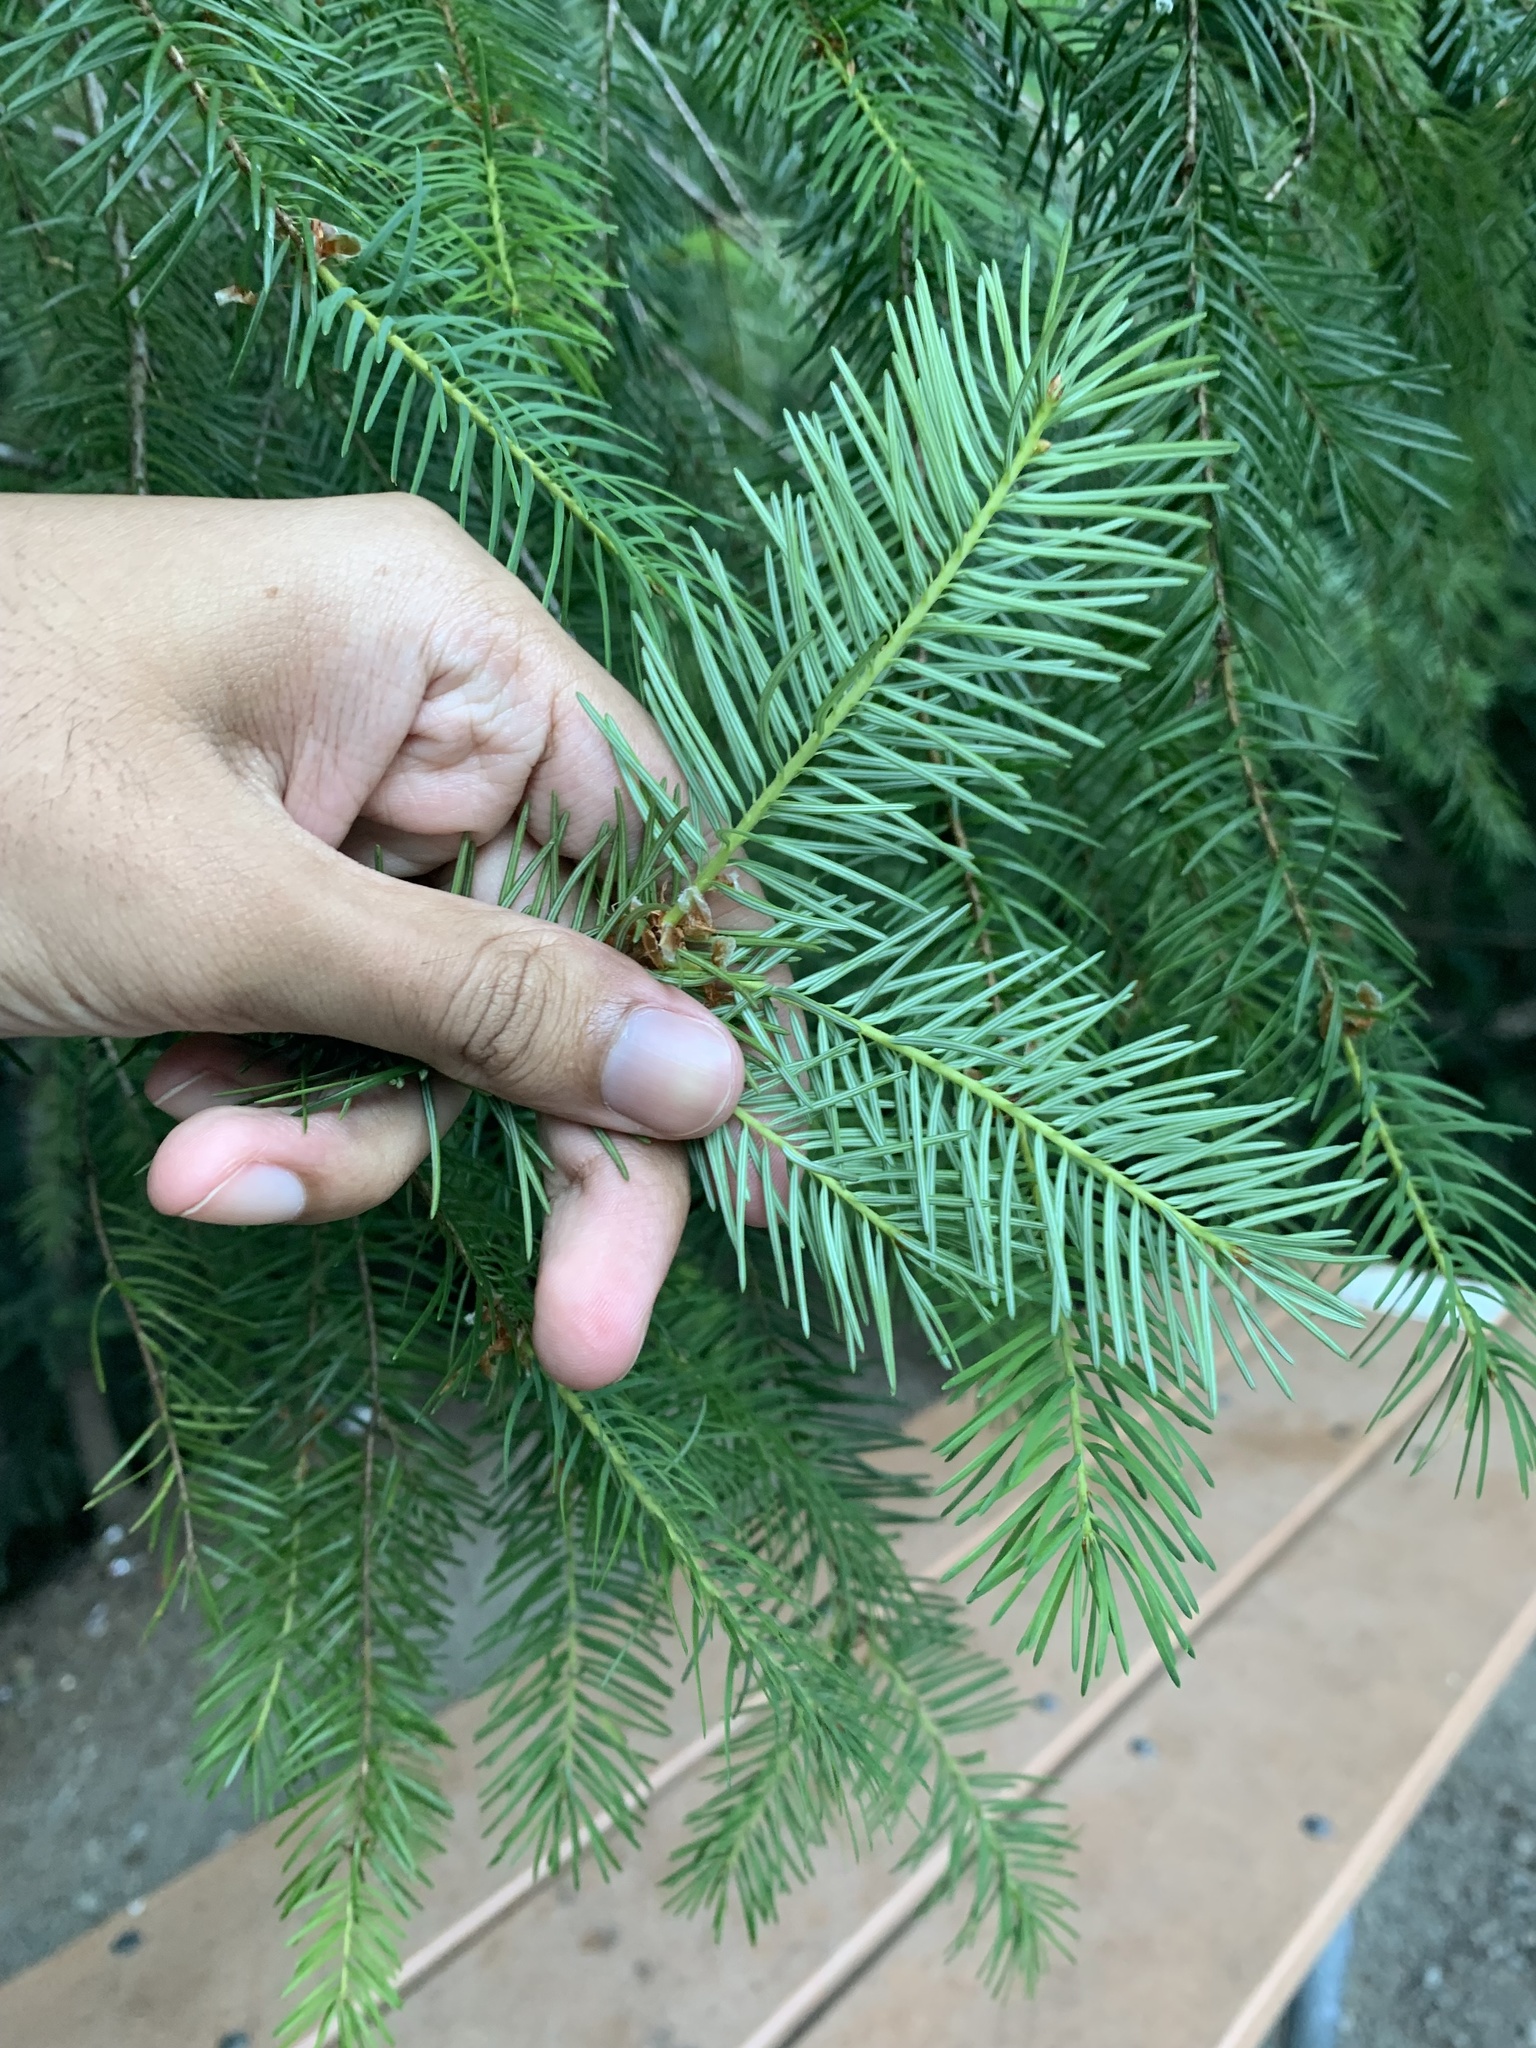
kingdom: Plantae
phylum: Tracheophyta
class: Pinopsida
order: Pinales
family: Pinaceae
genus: Pseudotsuga
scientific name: Pseudotsuga menziesii
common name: Douglas fir
